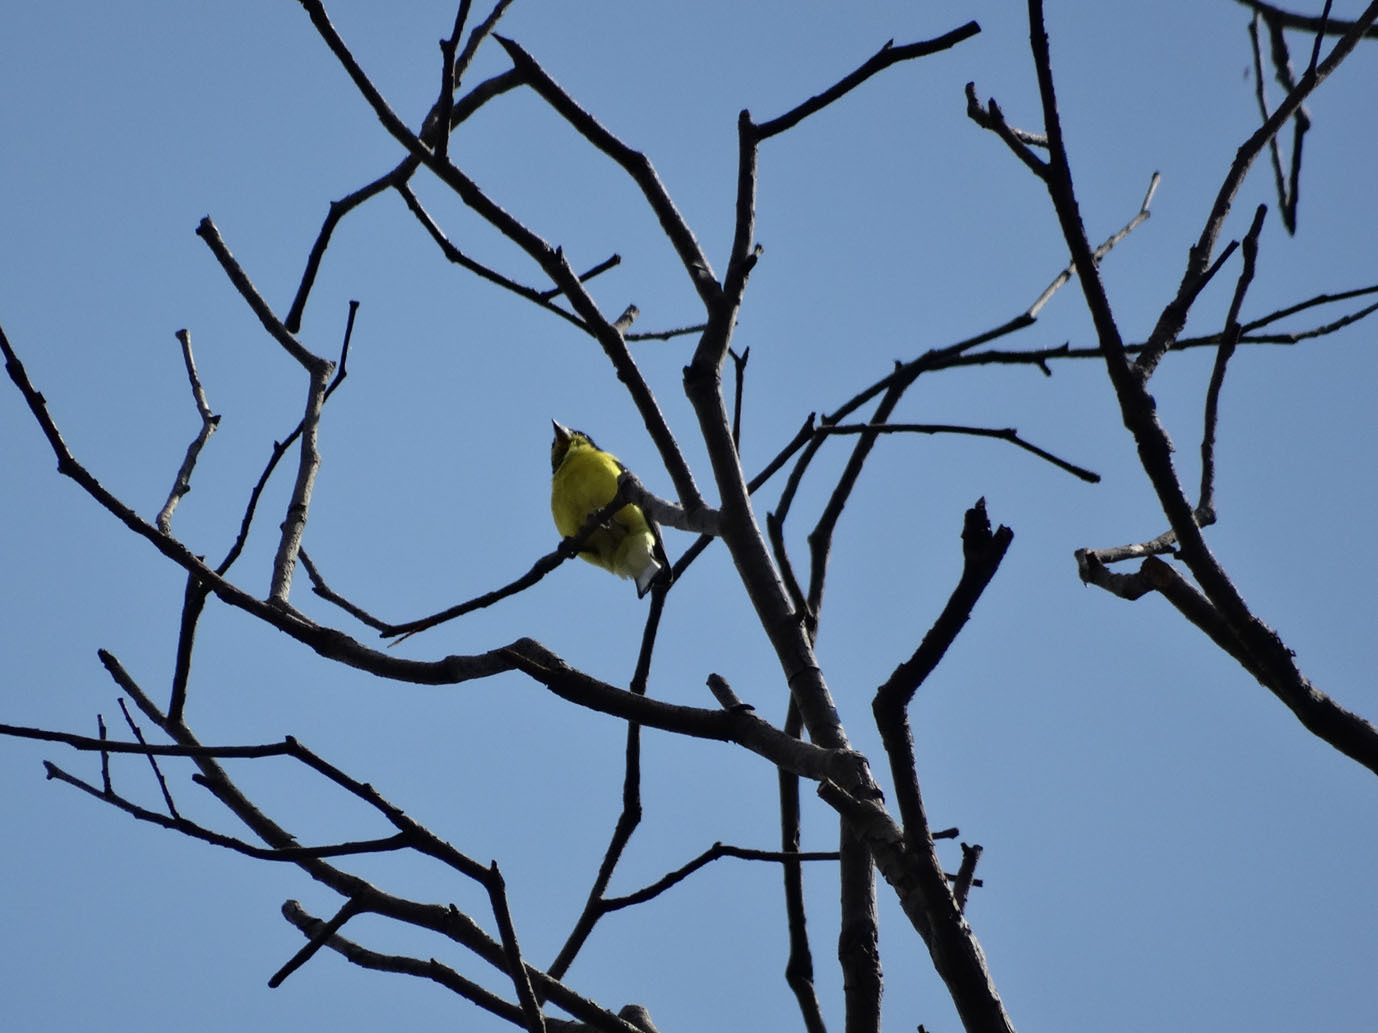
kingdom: Animalia
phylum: Chordata
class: Aves
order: Passeriformes
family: Fringillidae
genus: Spinus
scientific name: Spinus psaltria
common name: Lesser goldfinch
